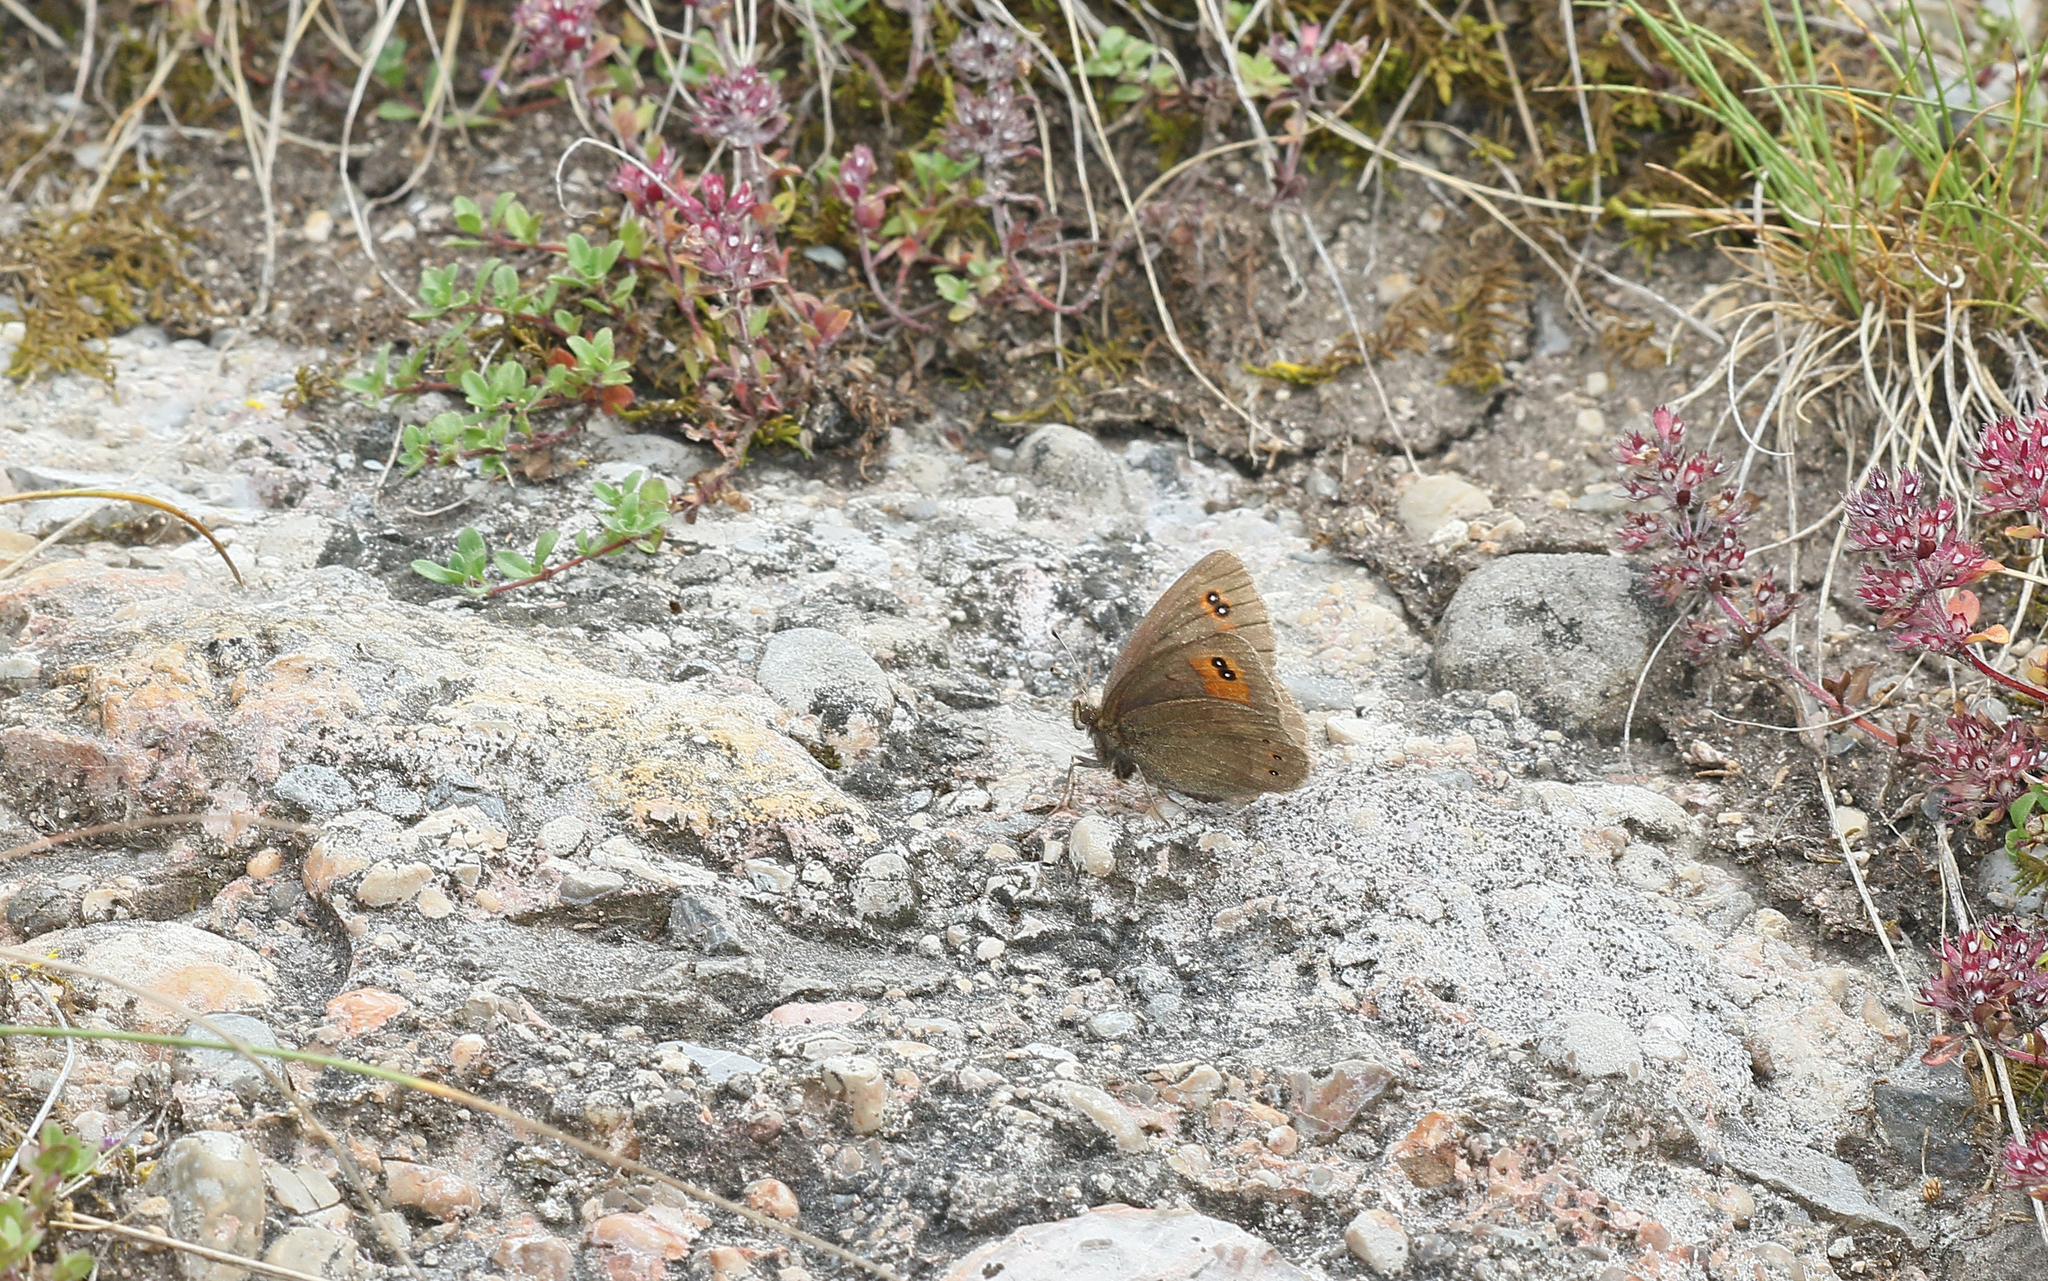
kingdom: Animalia
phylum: Arthropoda
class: Insecta
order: Lepidoptera
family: Nymphalidae
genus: Erebia
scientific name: Erebia meolans
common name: Piedmont ringlet
